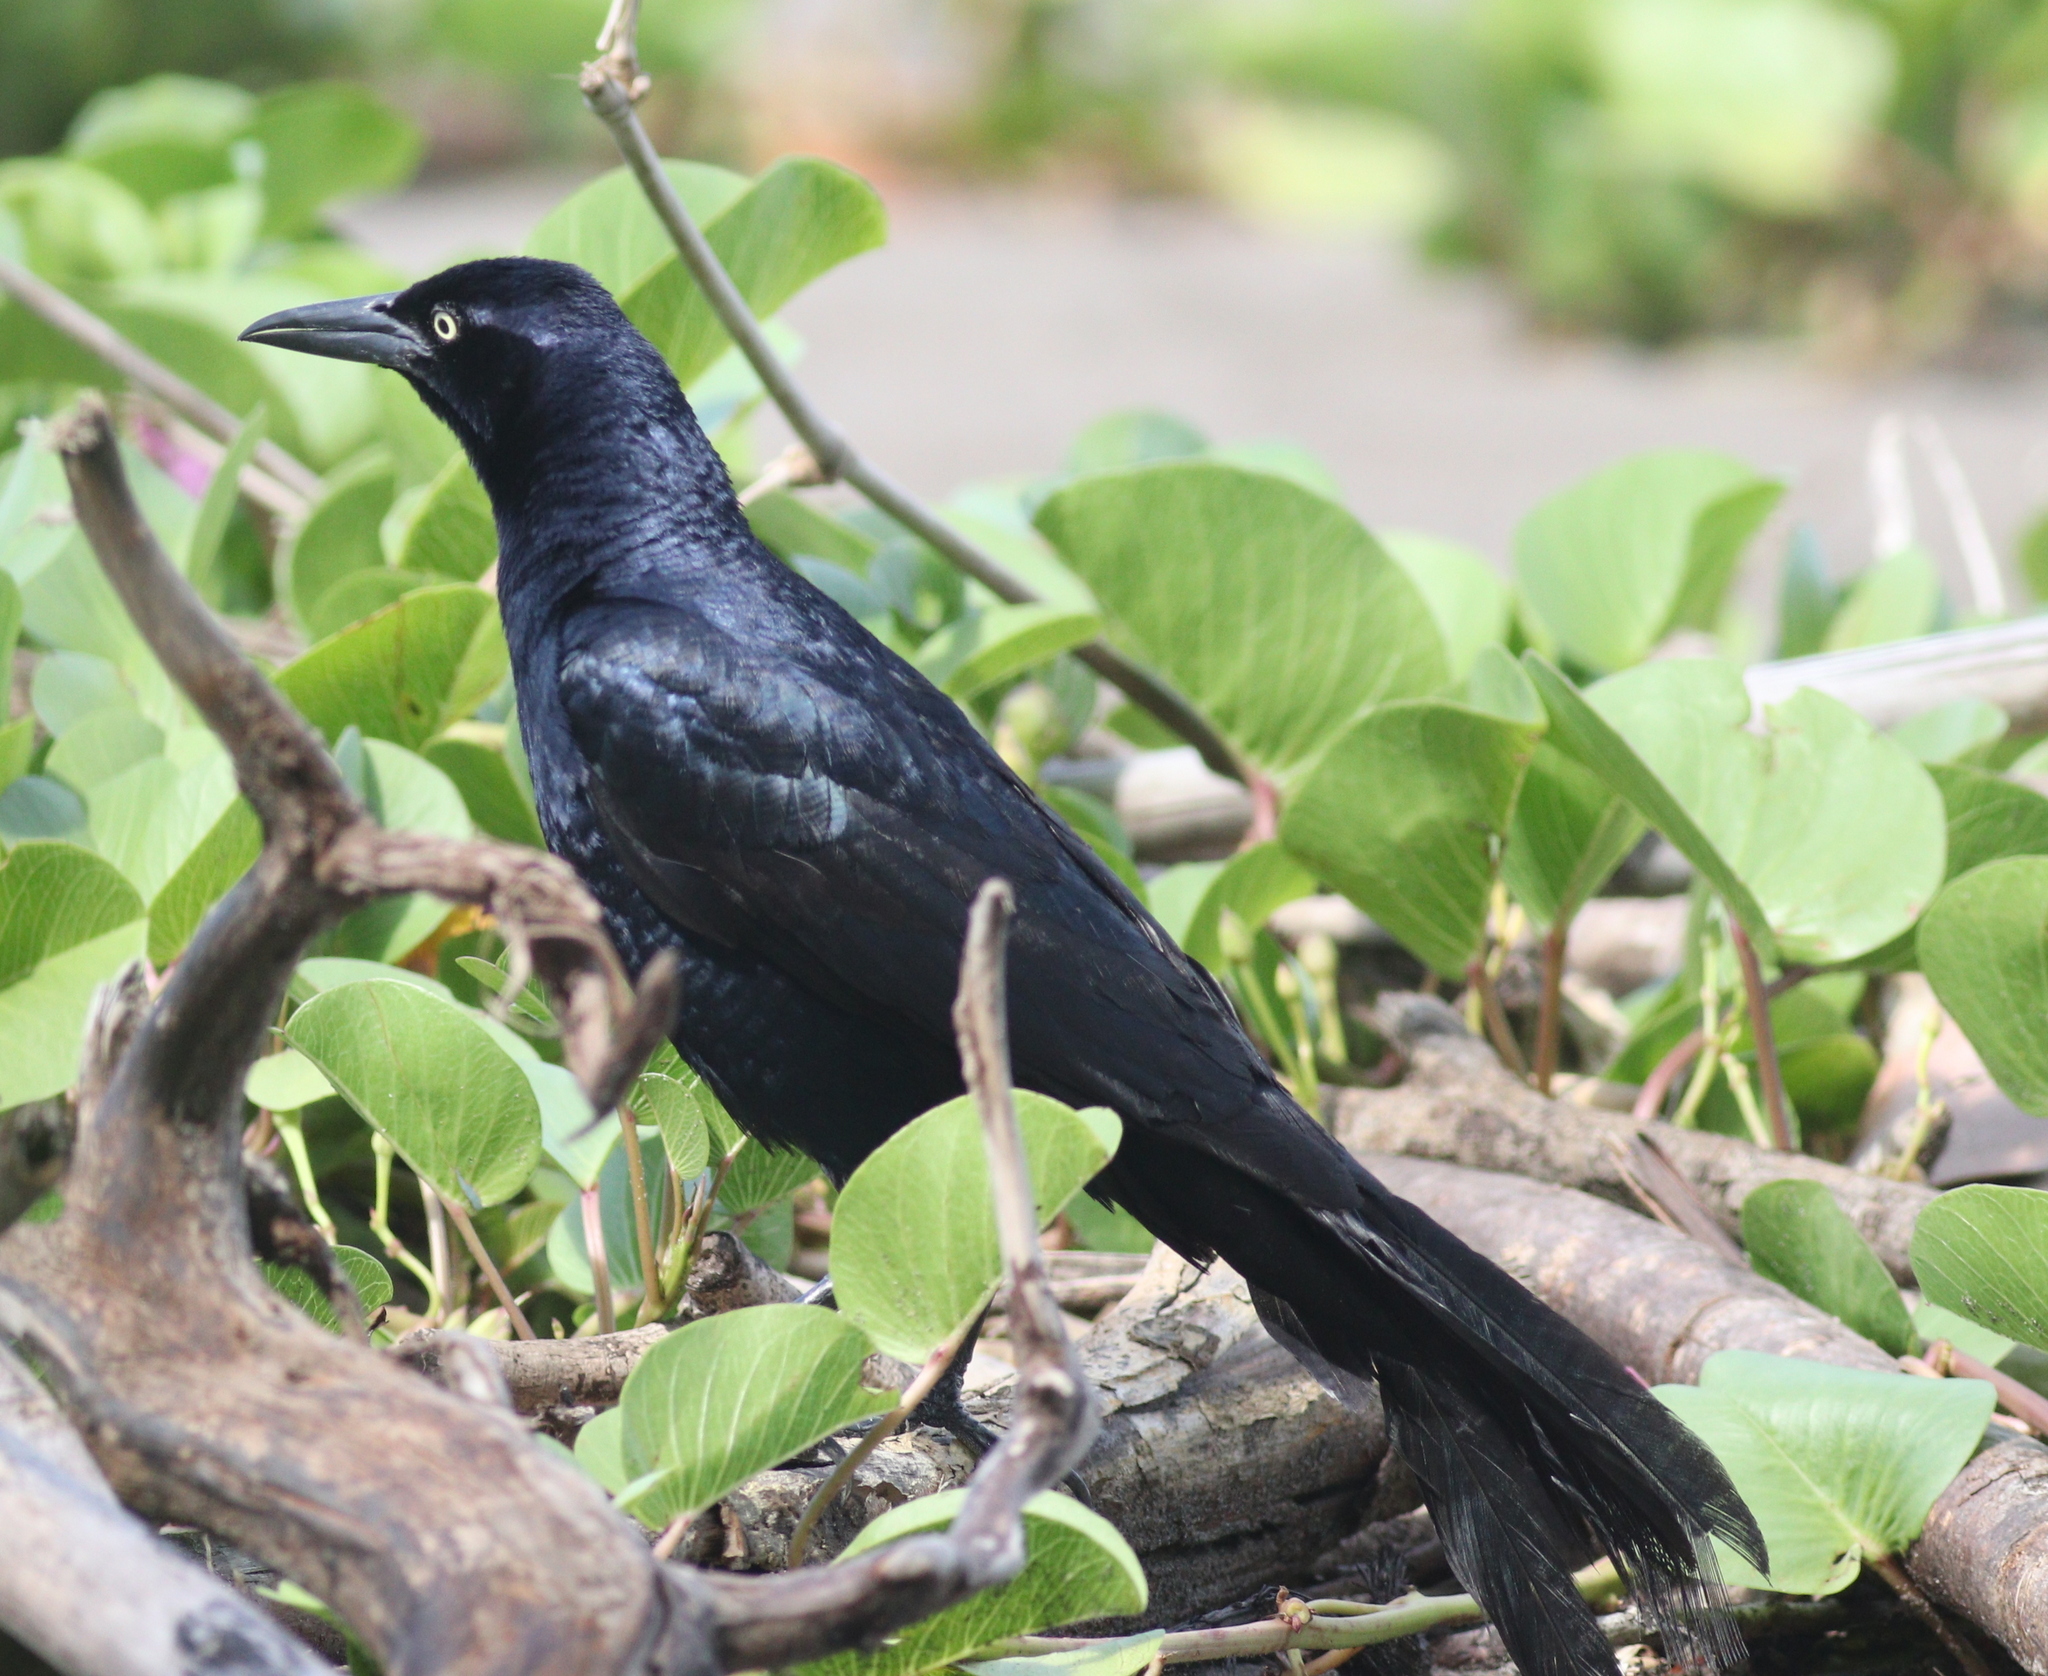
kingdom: Animalia
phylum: Chordata
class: Aves
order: Passeriformes
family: Icteridae
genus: Quiscalus
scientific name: Quiscalus mexicanus
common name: Great-tailed grackle
